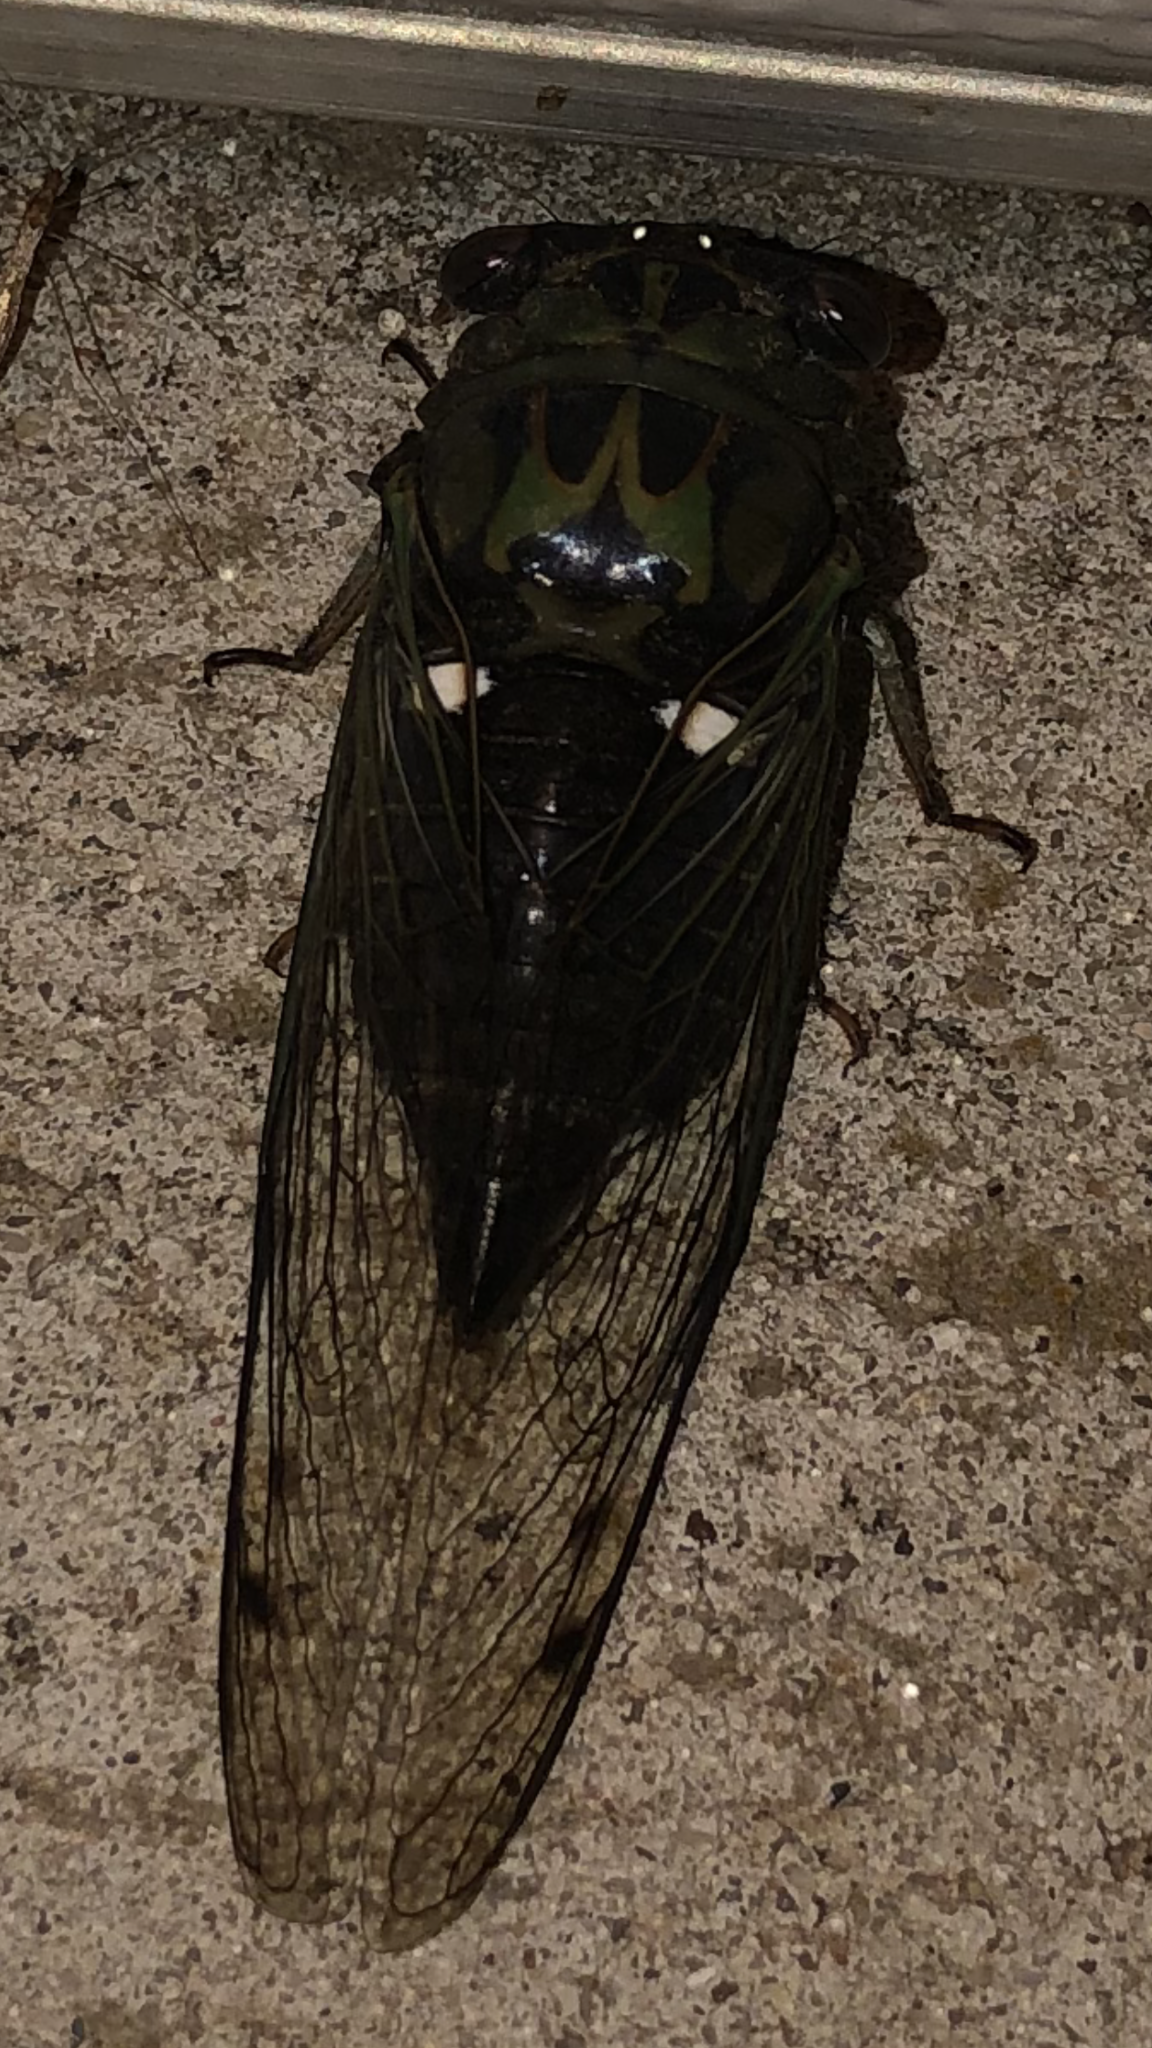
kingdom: Animalia
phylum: Arthropoda
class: Insecta
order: Hemiptera
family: Cicadidae
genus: Neotibicen
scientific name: Neotibicen pruinosus
